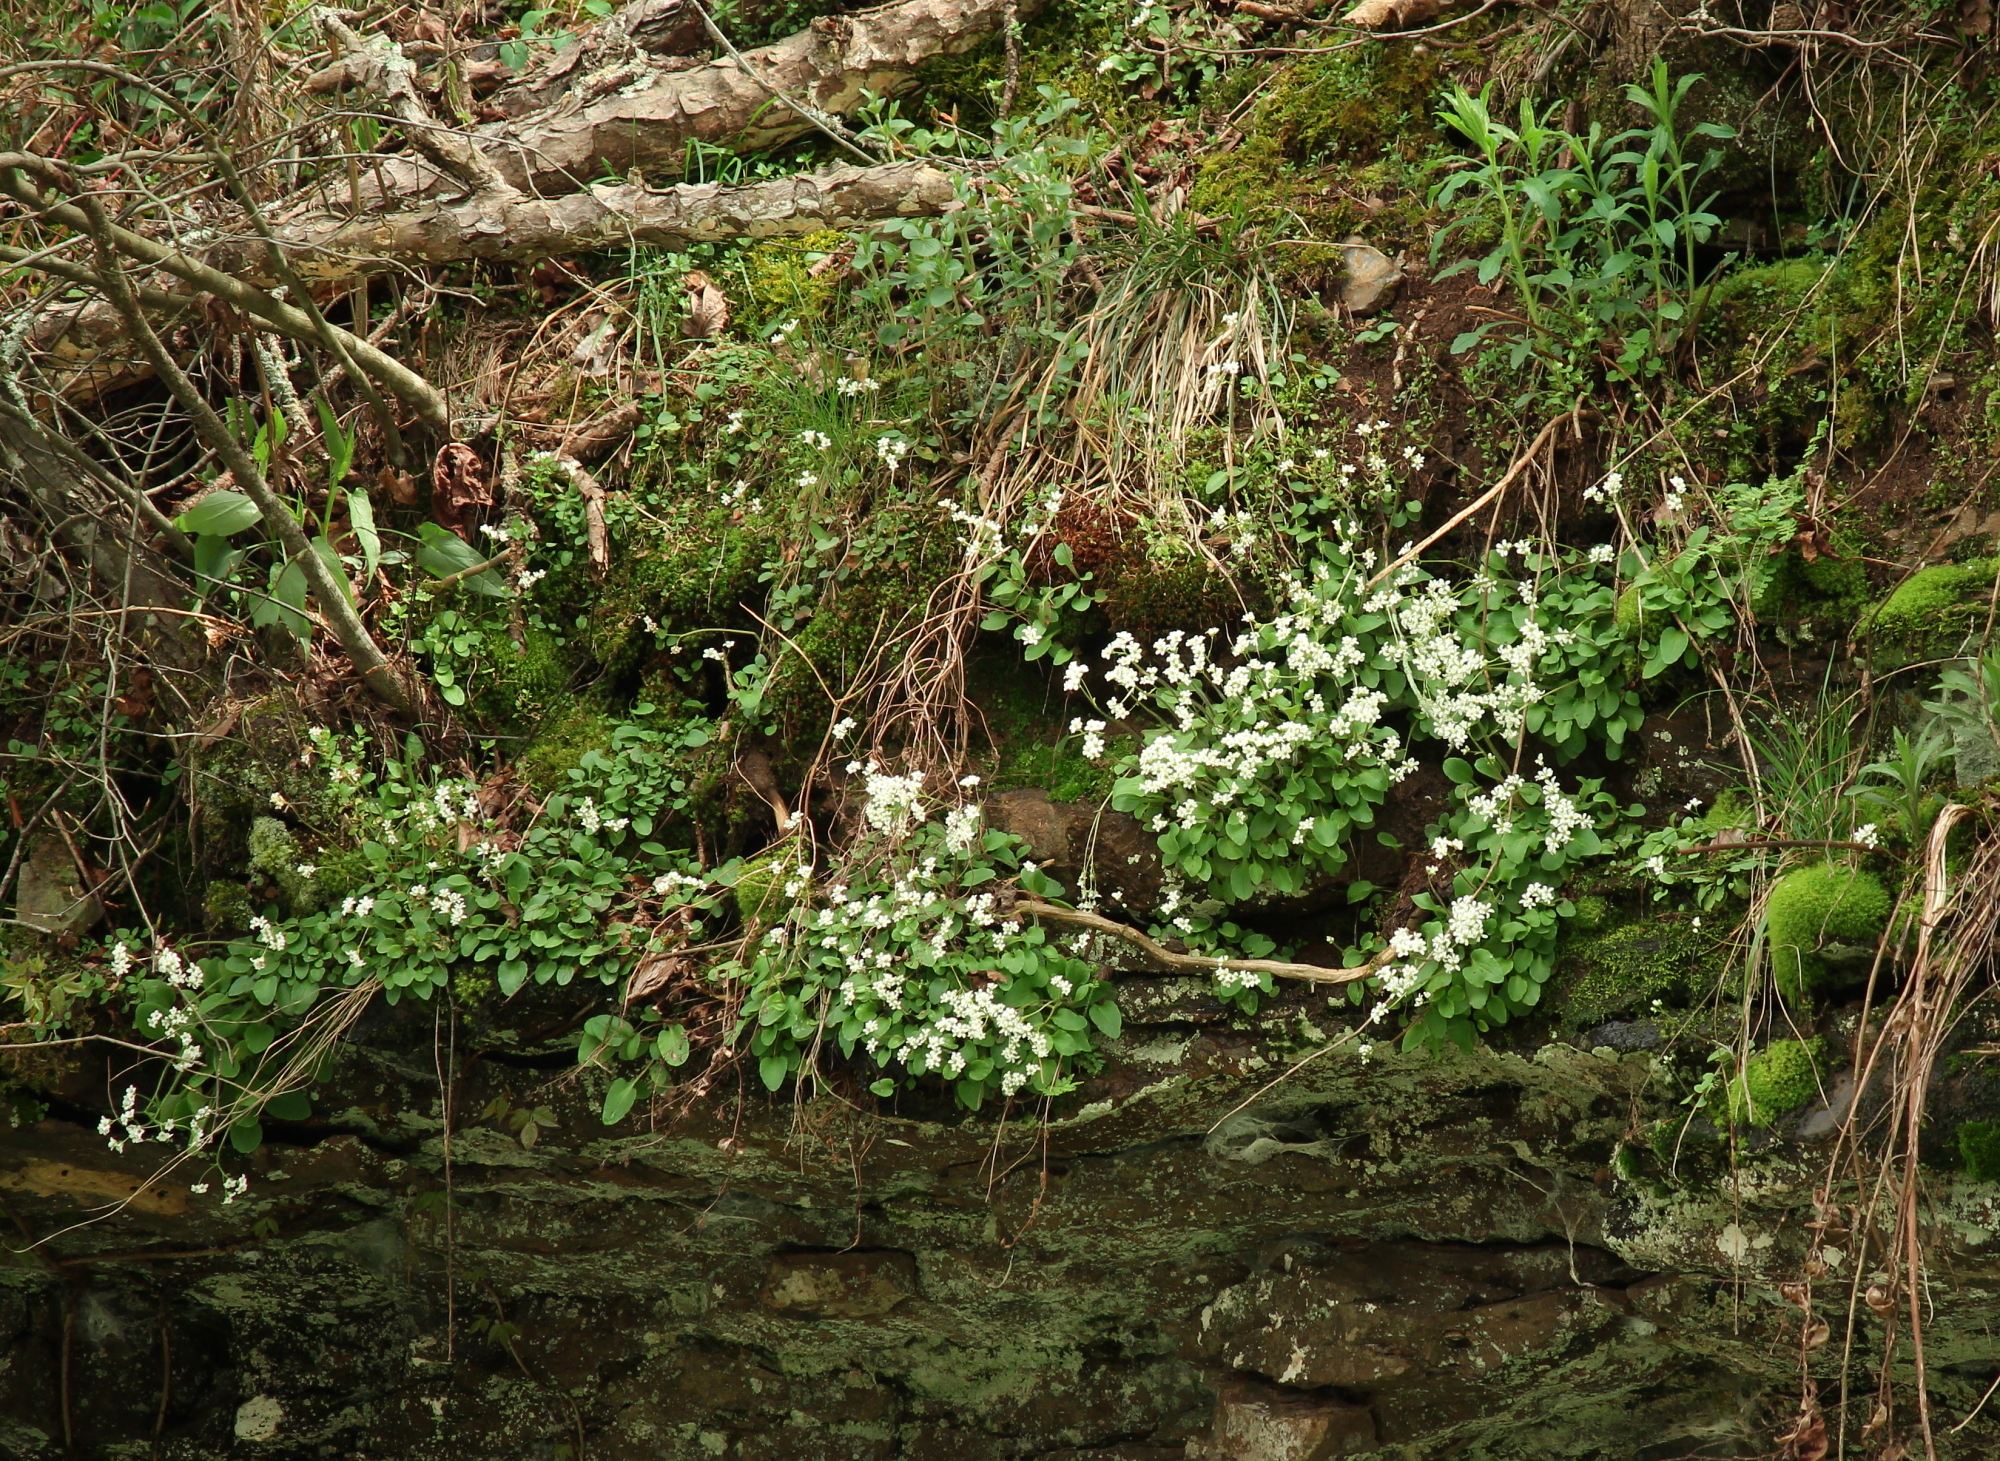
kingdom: Plantae
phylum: Tracheophyta
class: Magnoliopsida
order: Saxifragales
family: Saxifragaceae
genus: Micranthes
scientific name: Micranthes palmeri
